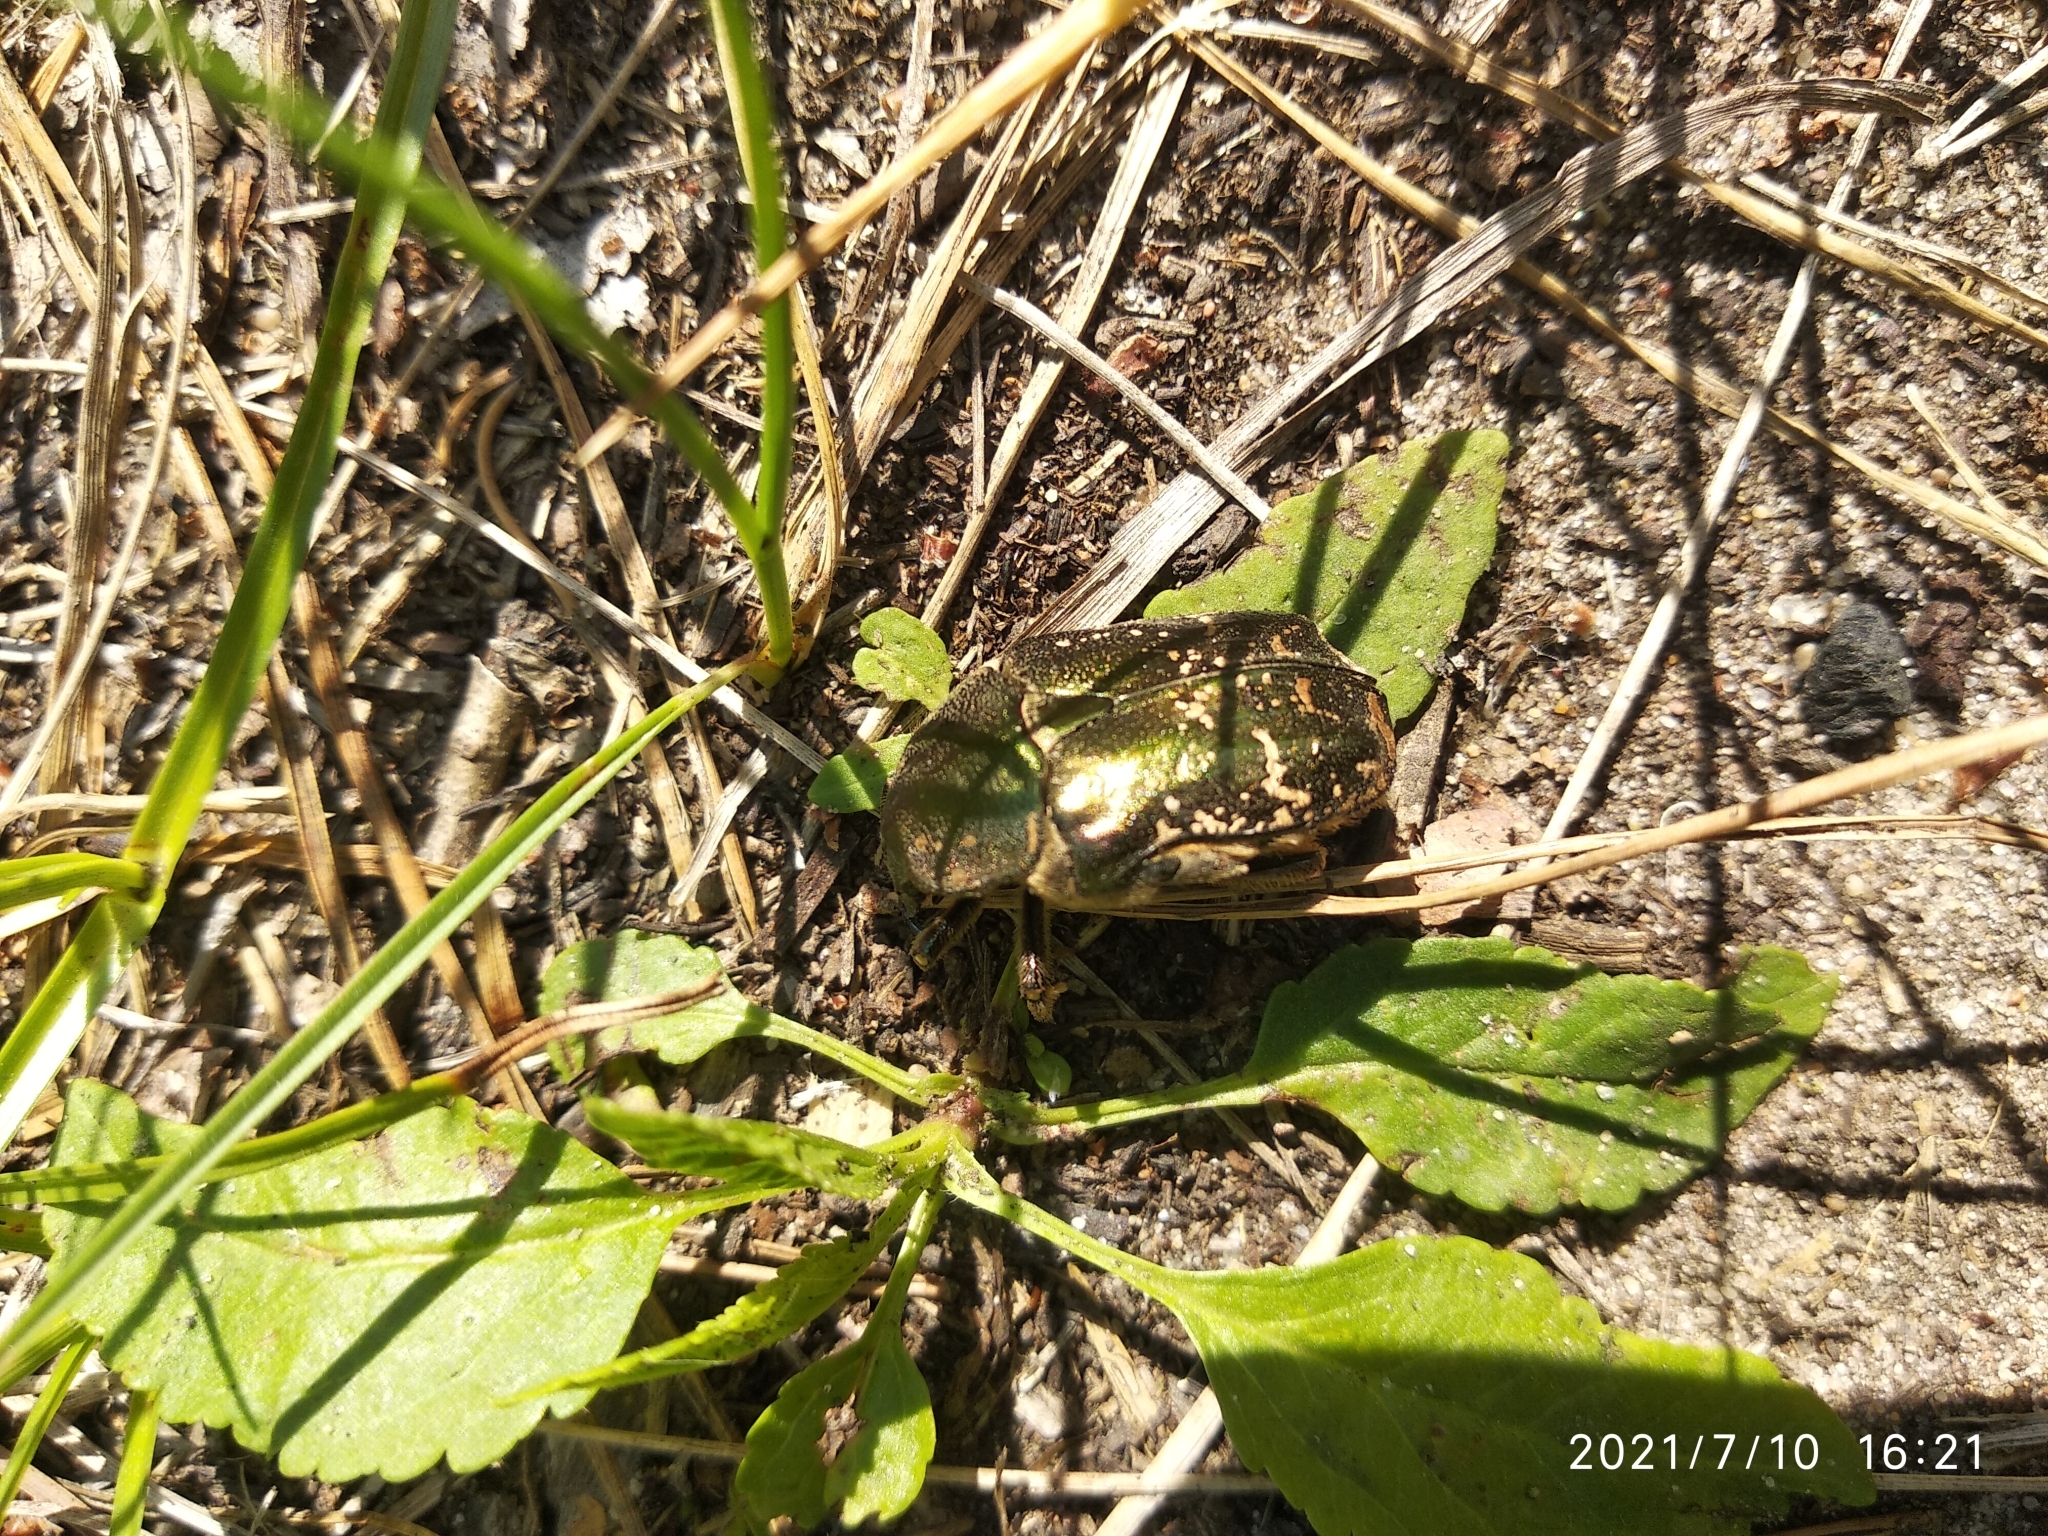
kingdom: Animalia
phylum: Arthropoda
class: Insecta
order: Coleoptera
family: Scarabaeidae
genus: Protaetia
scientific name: Protaetia cuprea
